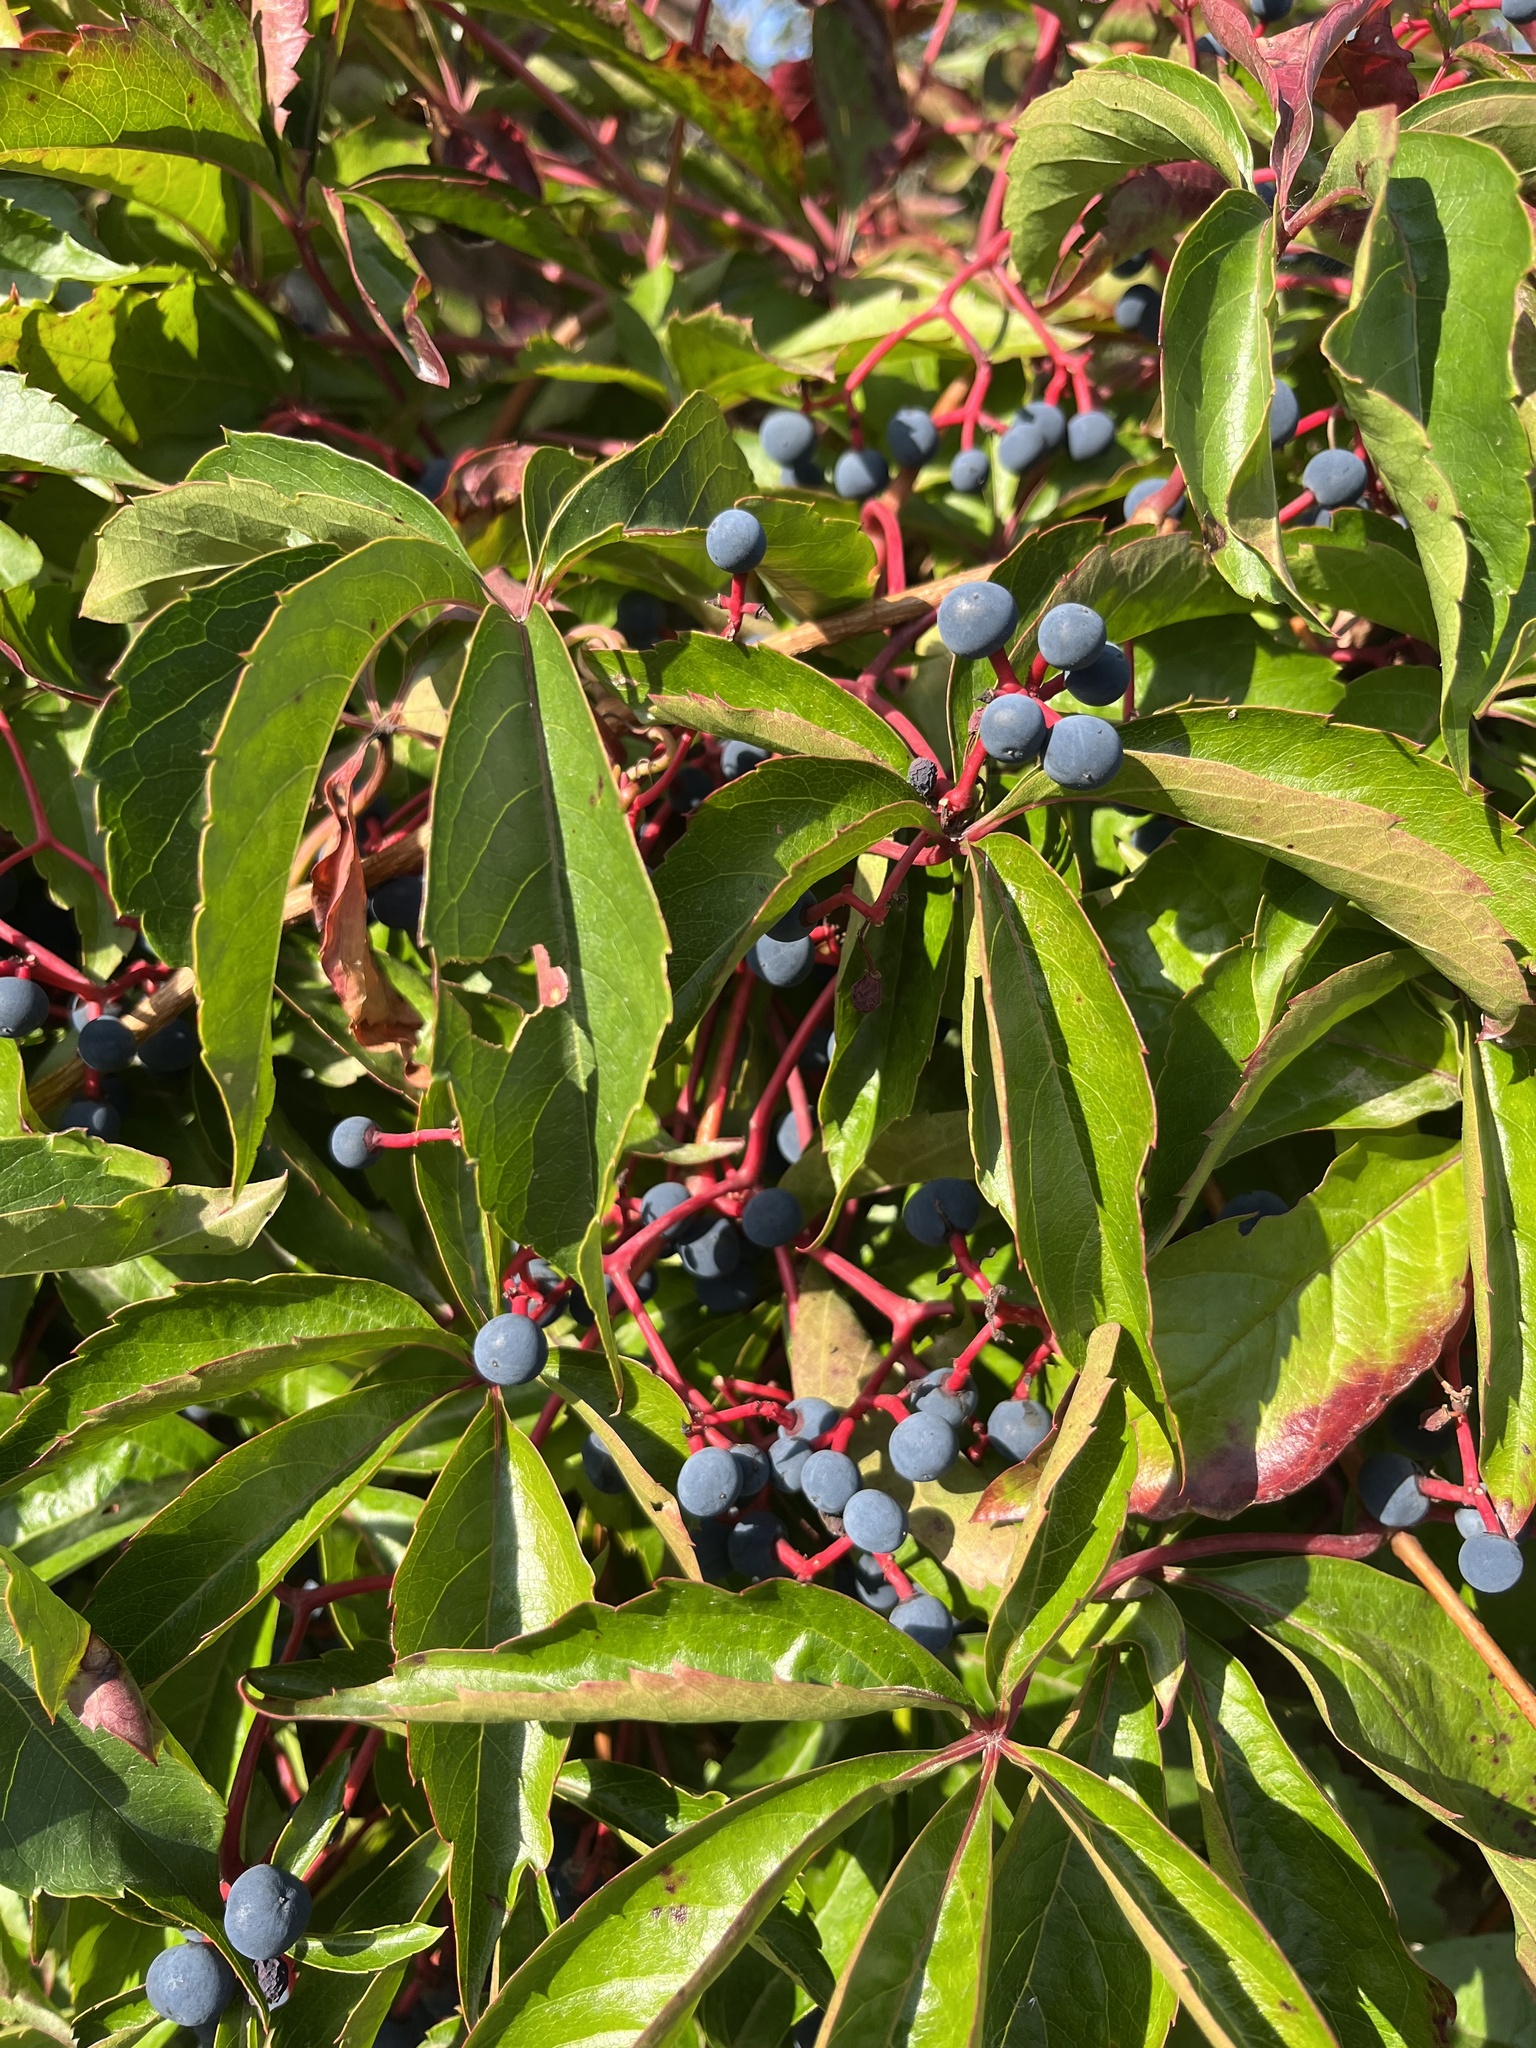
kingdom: Plantae
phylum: Tracheophyta
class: Magnoliopsida
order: Vitales
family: Vitaceae
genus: Parthenocissus
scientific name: Parthenocissus quinquefolia
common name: Virginia-creeper
